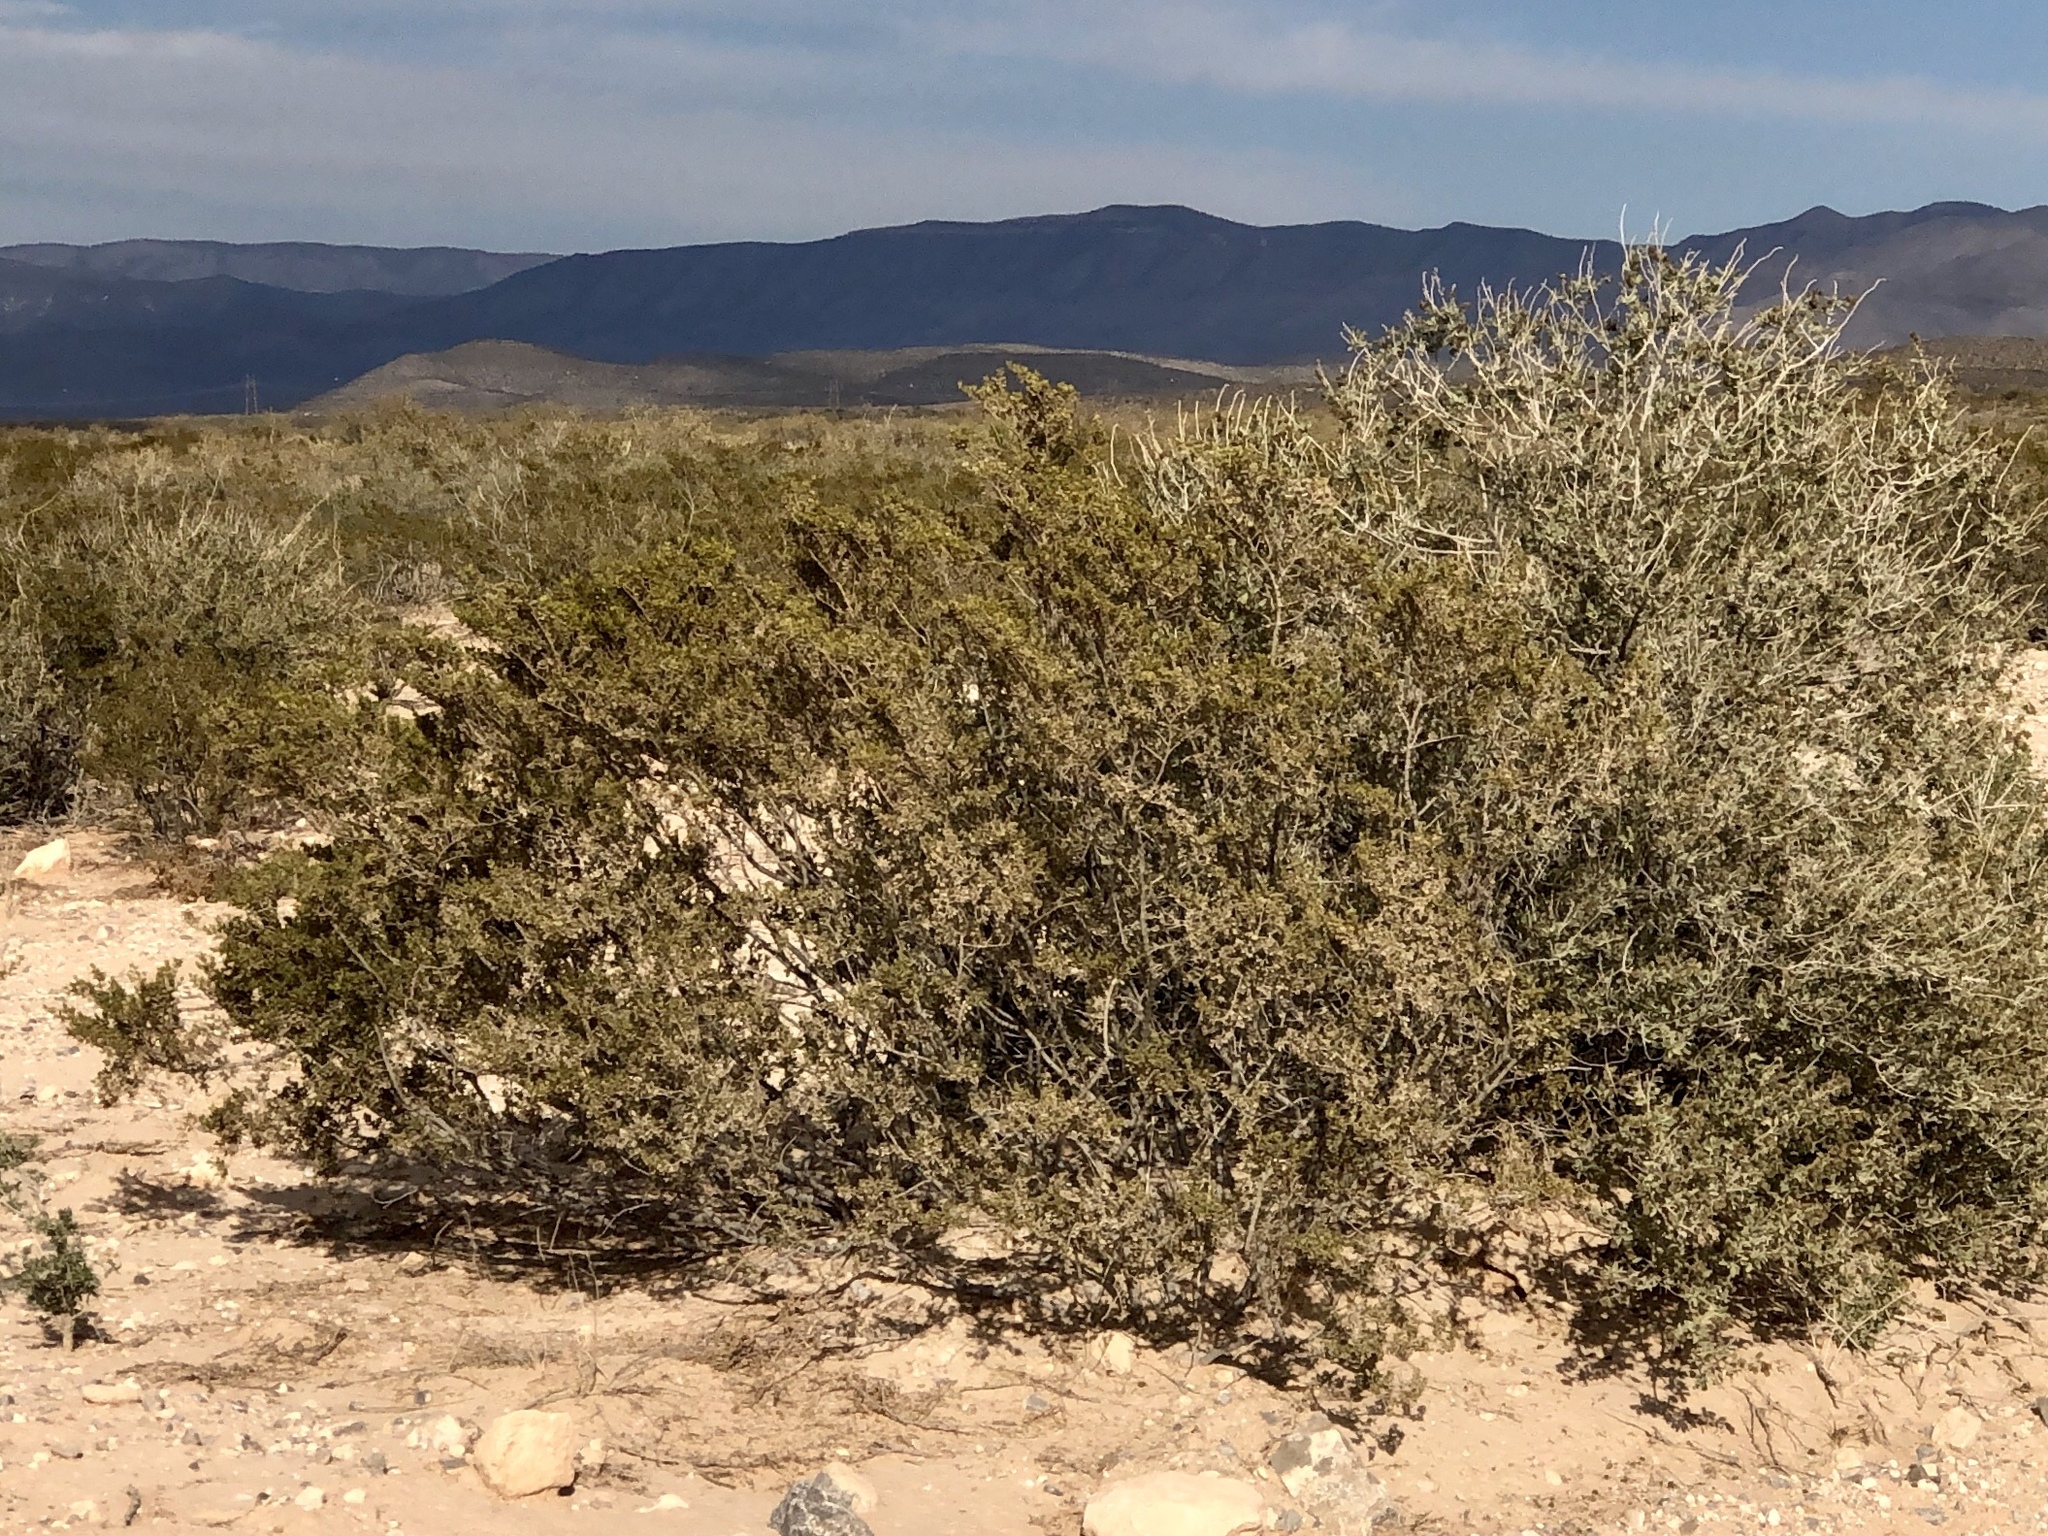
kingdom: Plantae
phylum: Tracheophyta
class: Magnoliopsida
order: Zygophyllales
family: Zygophyllaceae
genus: Larrea
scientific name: Larrea tridentata
